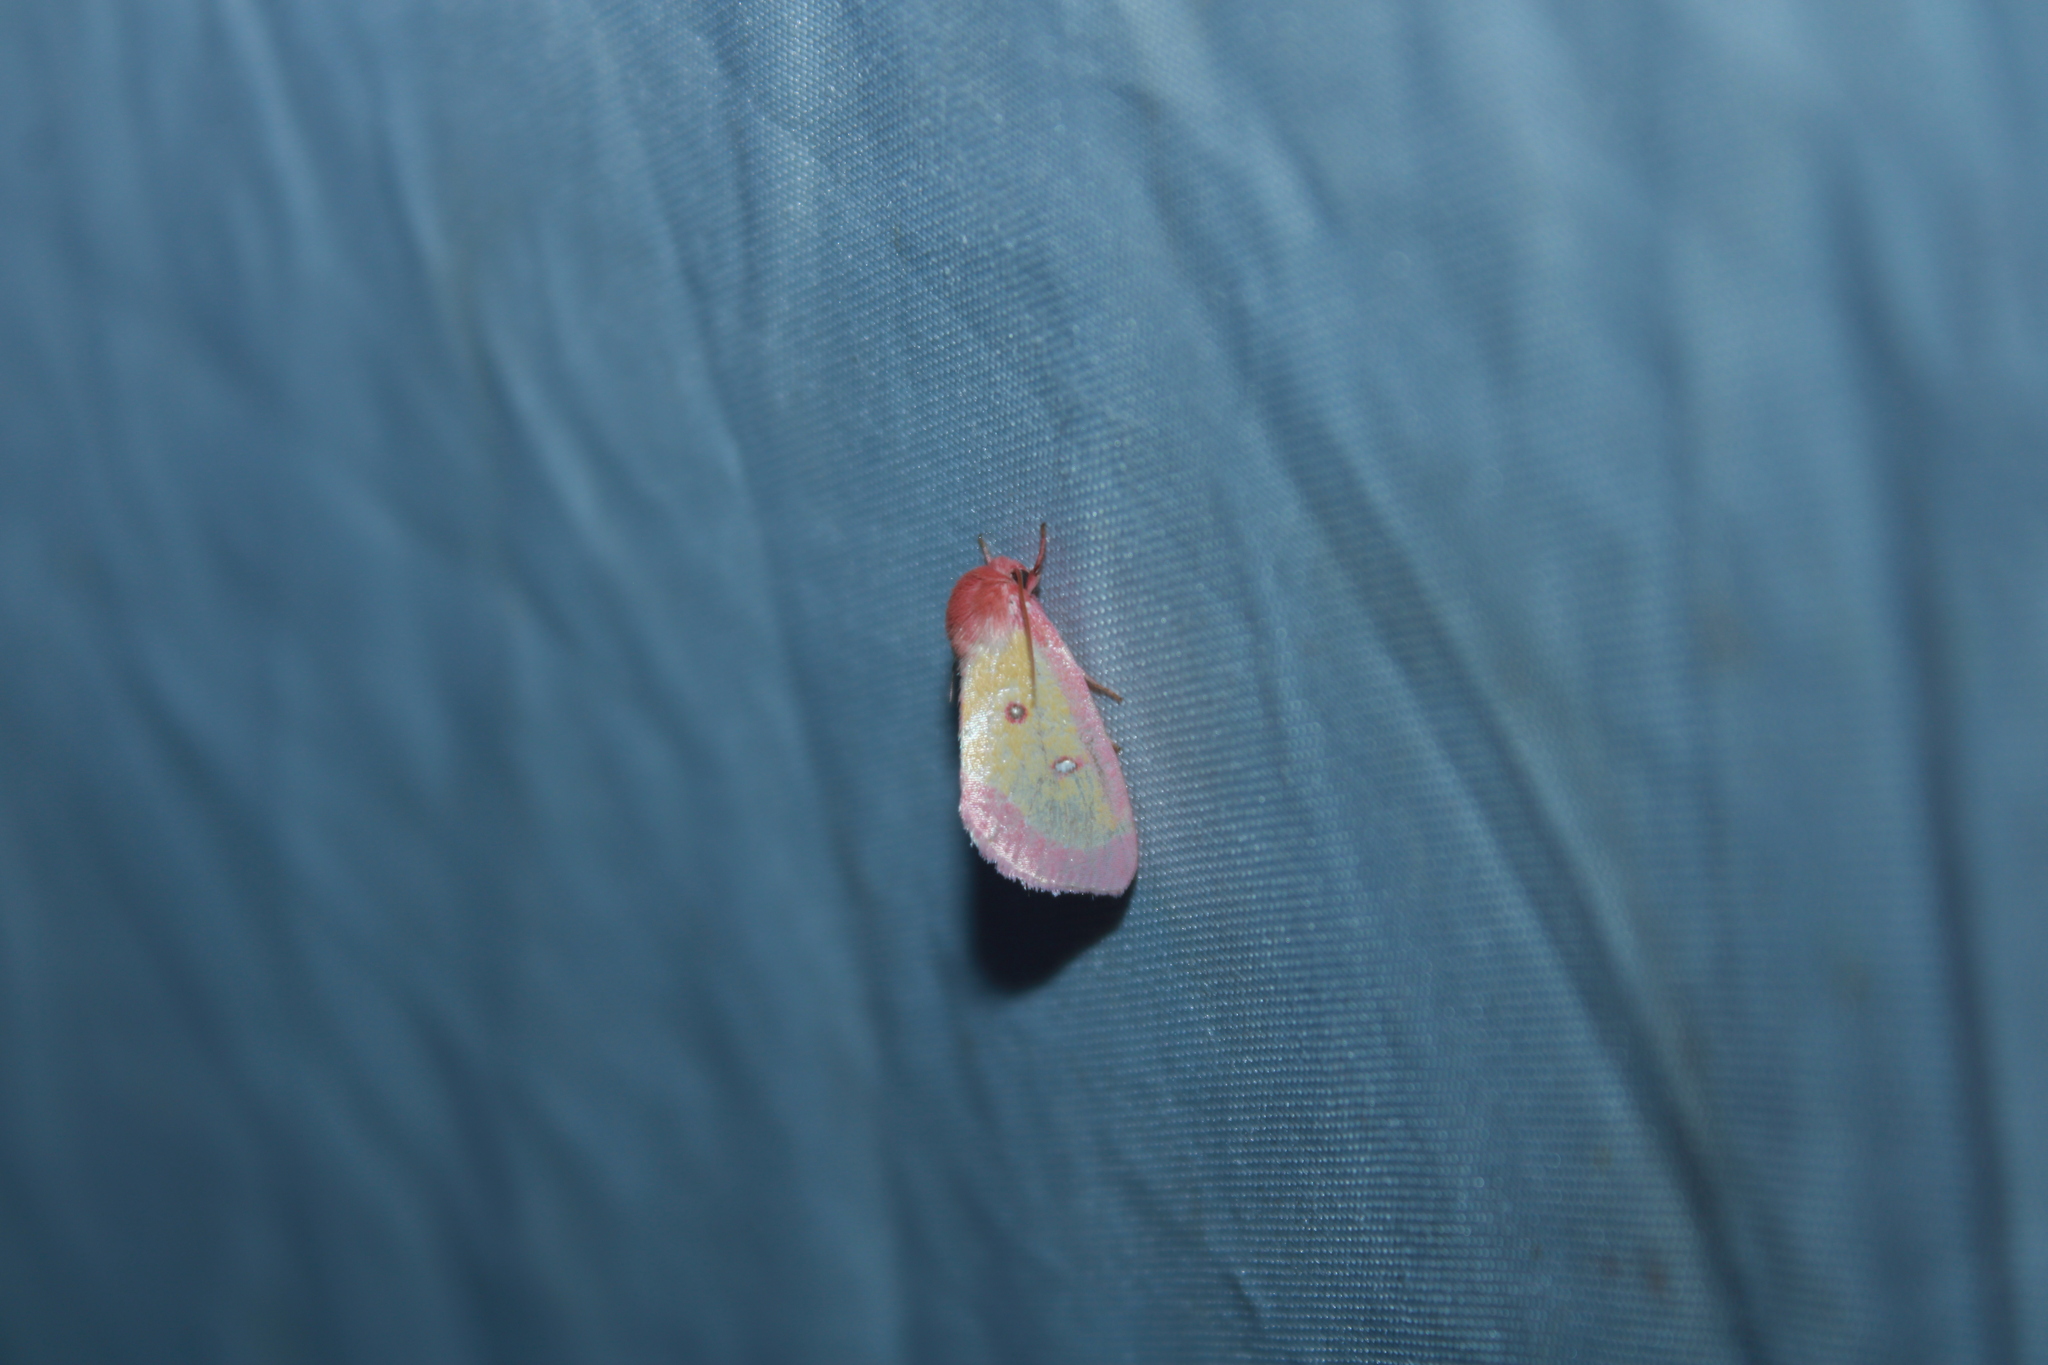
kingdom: Animalia
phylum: Arthropoda
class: Insecta
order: Lepidoptera
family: Noctuidae
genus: Derrima
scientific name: Derrima stellata
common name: Pink star moth
